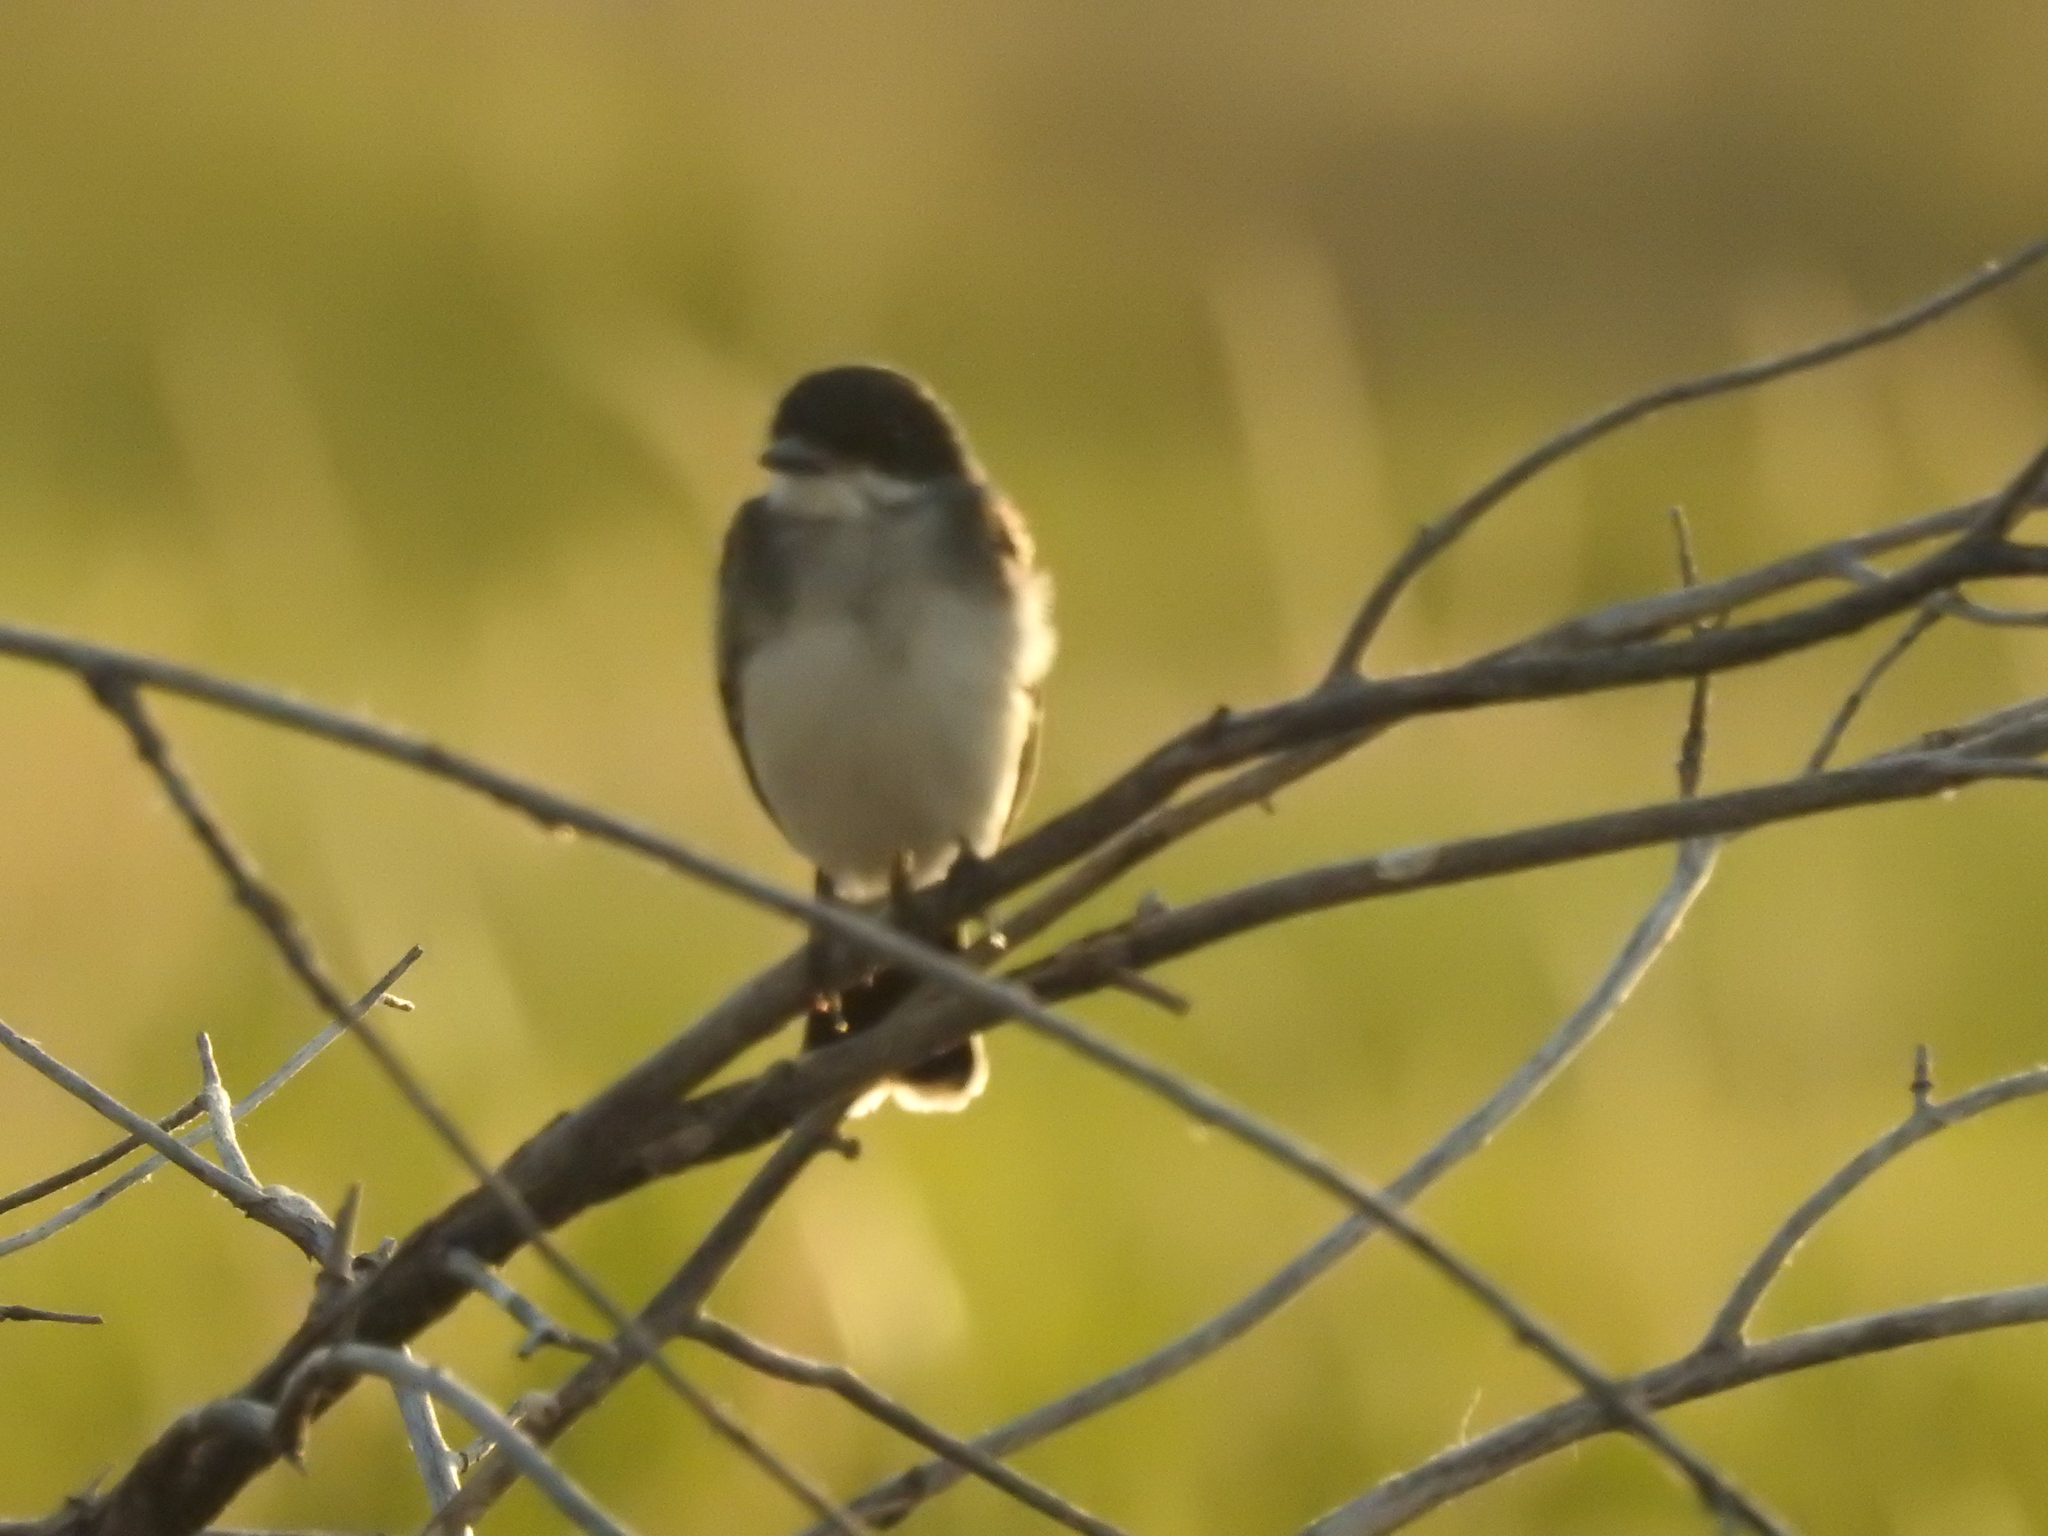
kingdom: Animalia
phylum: Chordata
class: Aves
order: Passeriformes
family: Tyrannidae
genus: Tyrannus
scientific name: Tyrannus tyrannus
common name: Eastern kingbird
